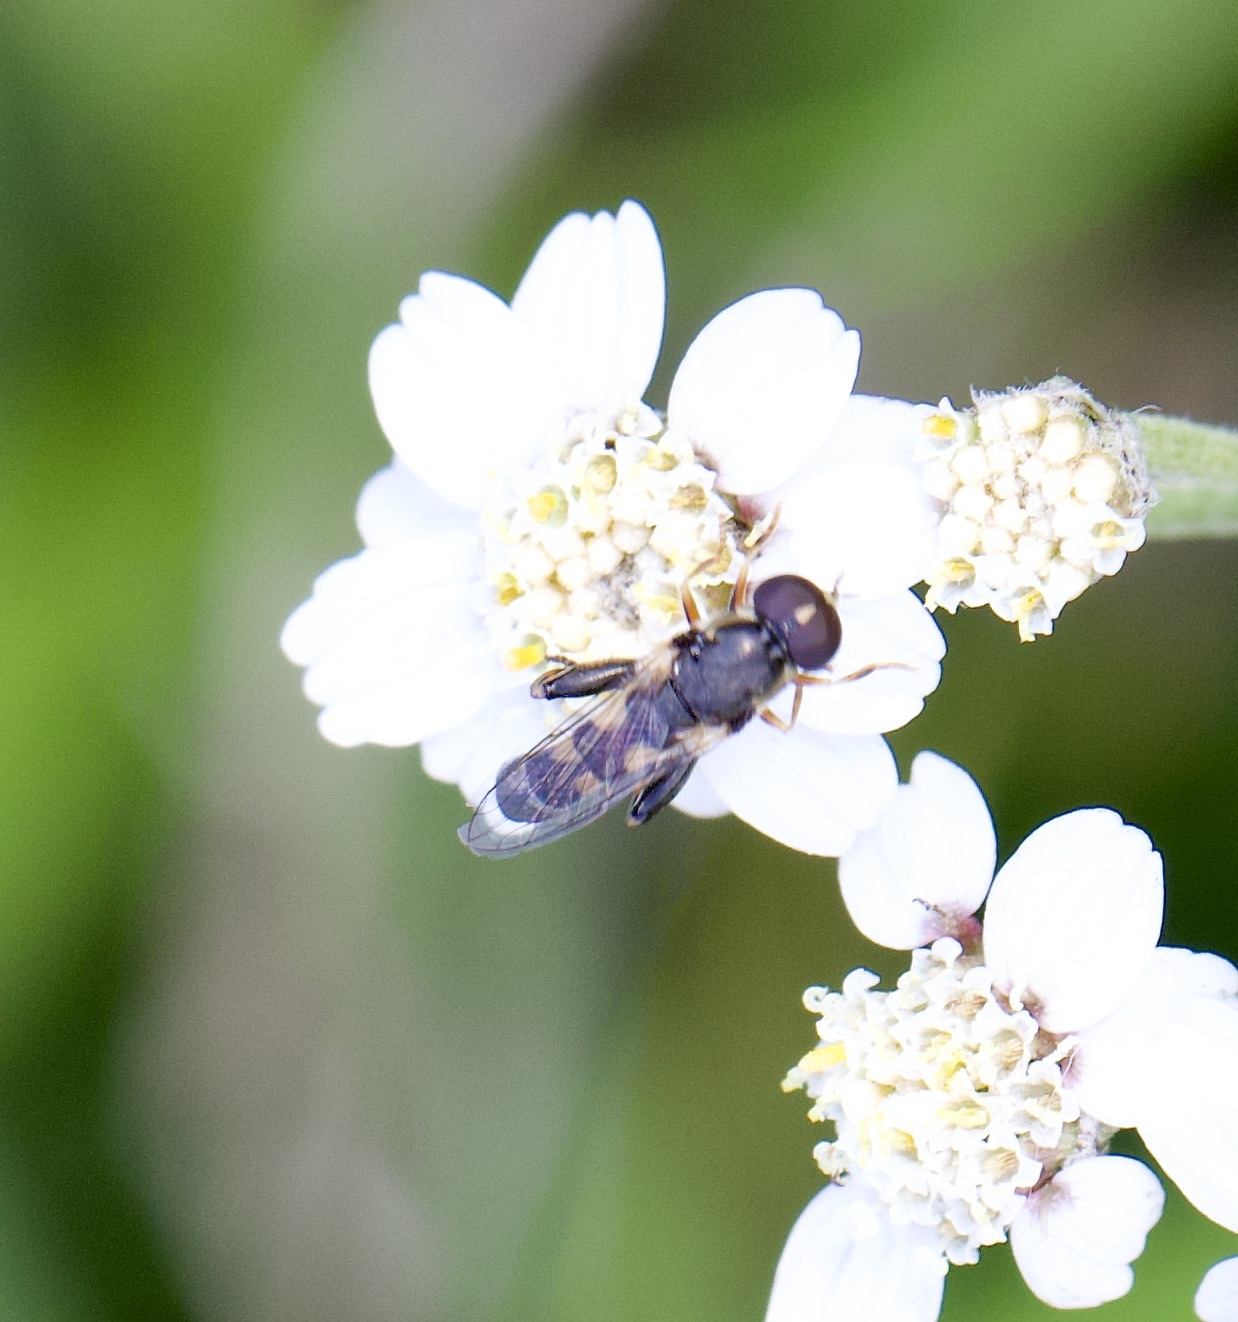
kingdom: Animalia
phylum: Arthropoda
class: Insecta
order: Diptera
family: Syrphidae
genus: Syritta
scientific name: Syritta pipiens
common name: Hover fly
